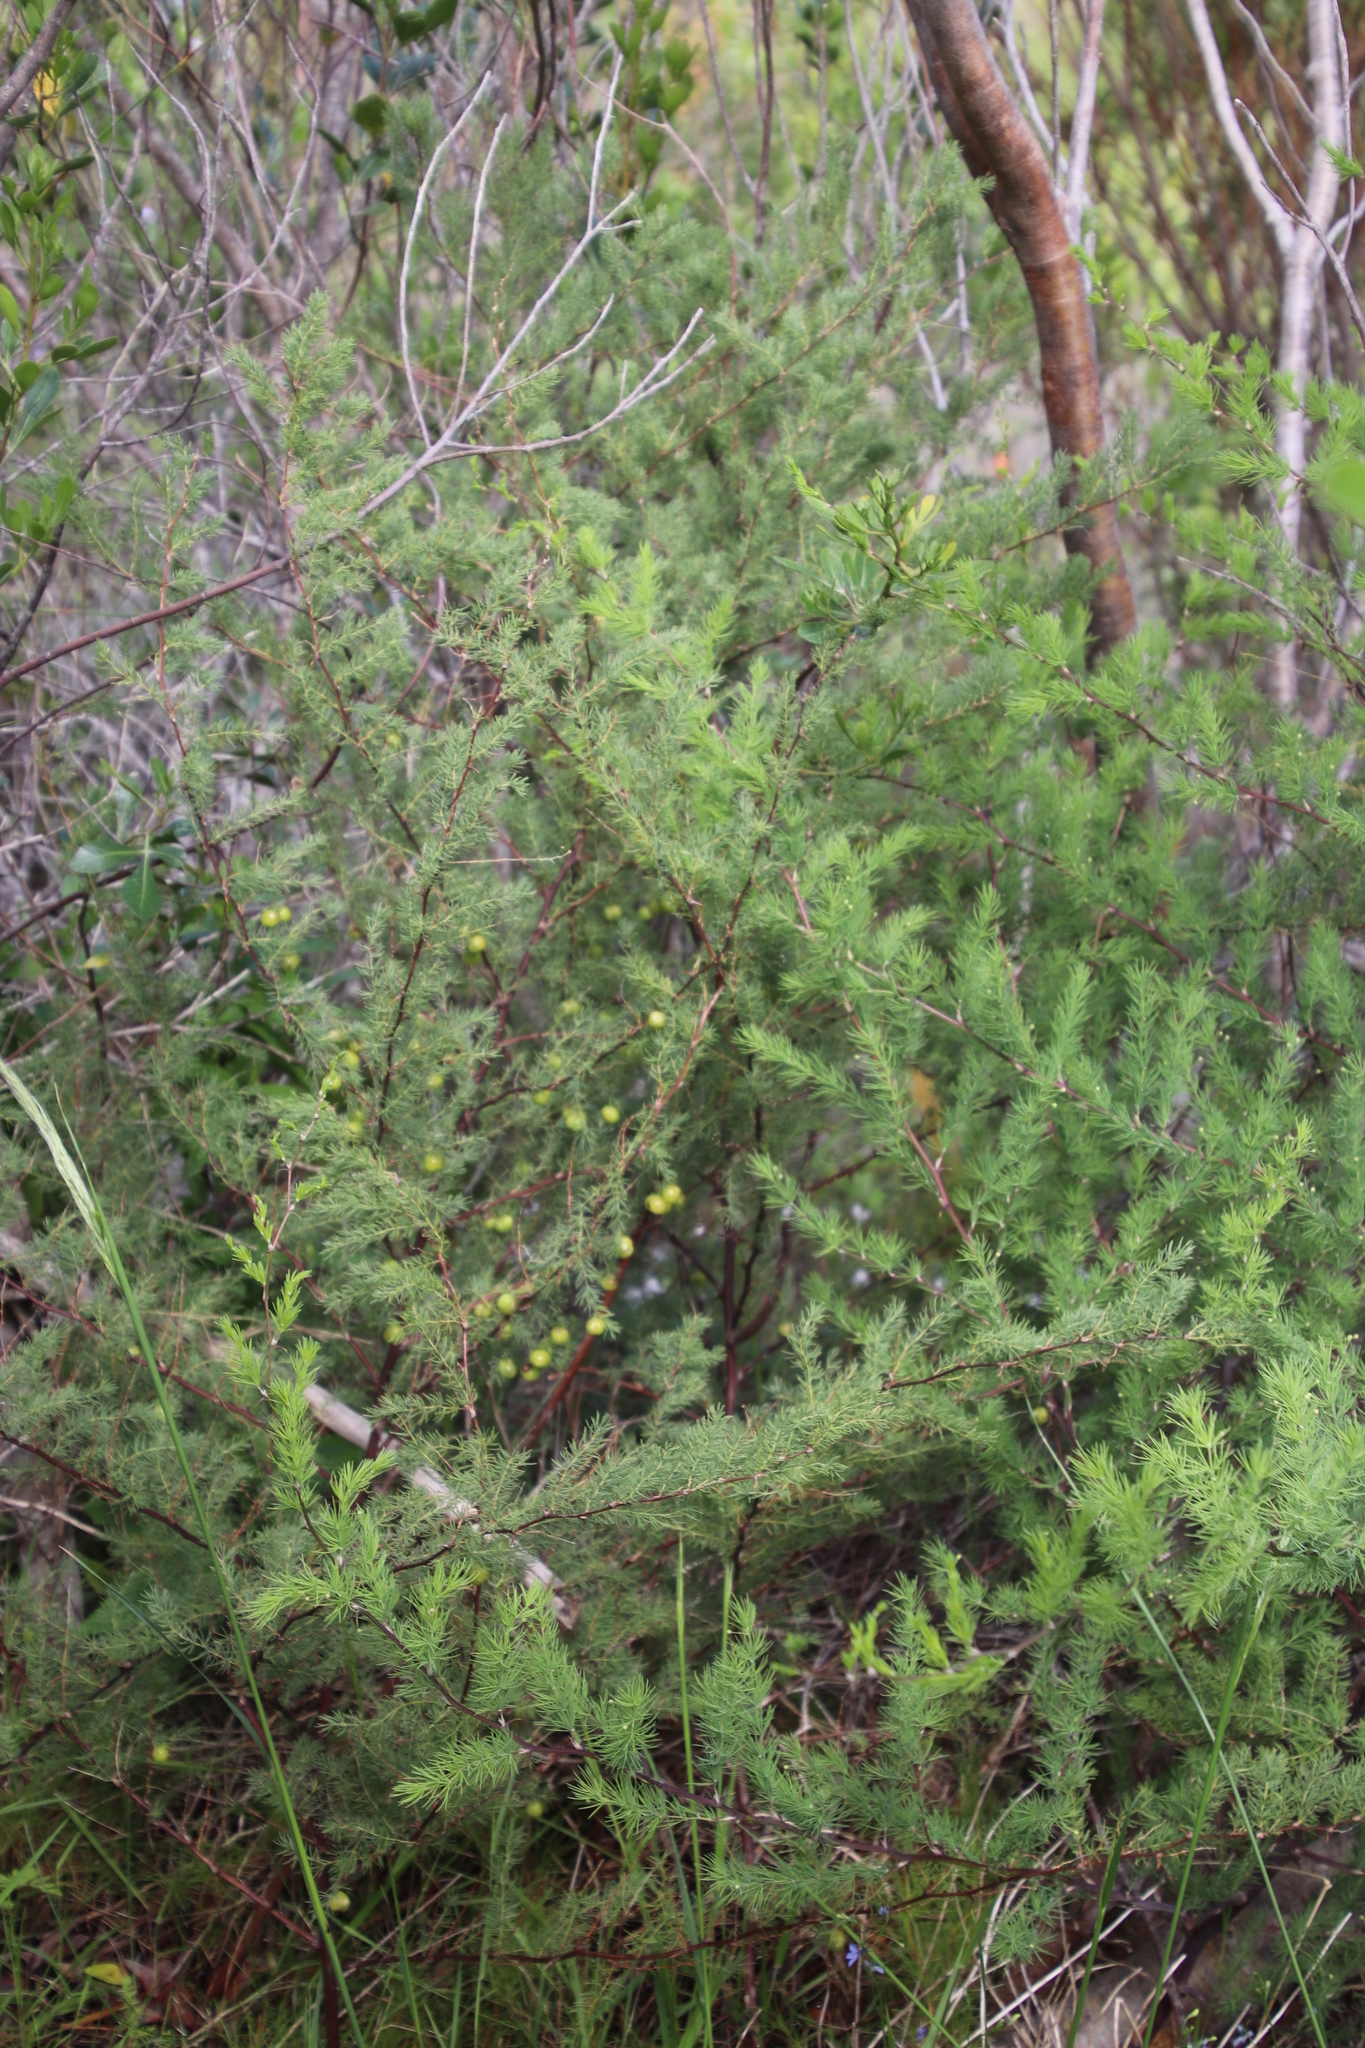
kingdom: Plantae
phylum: Tracheophyta
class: Liliopsida
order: Asparagales
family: Asparagaceae
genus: Asparagus
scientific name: Asparagus rubicundus
